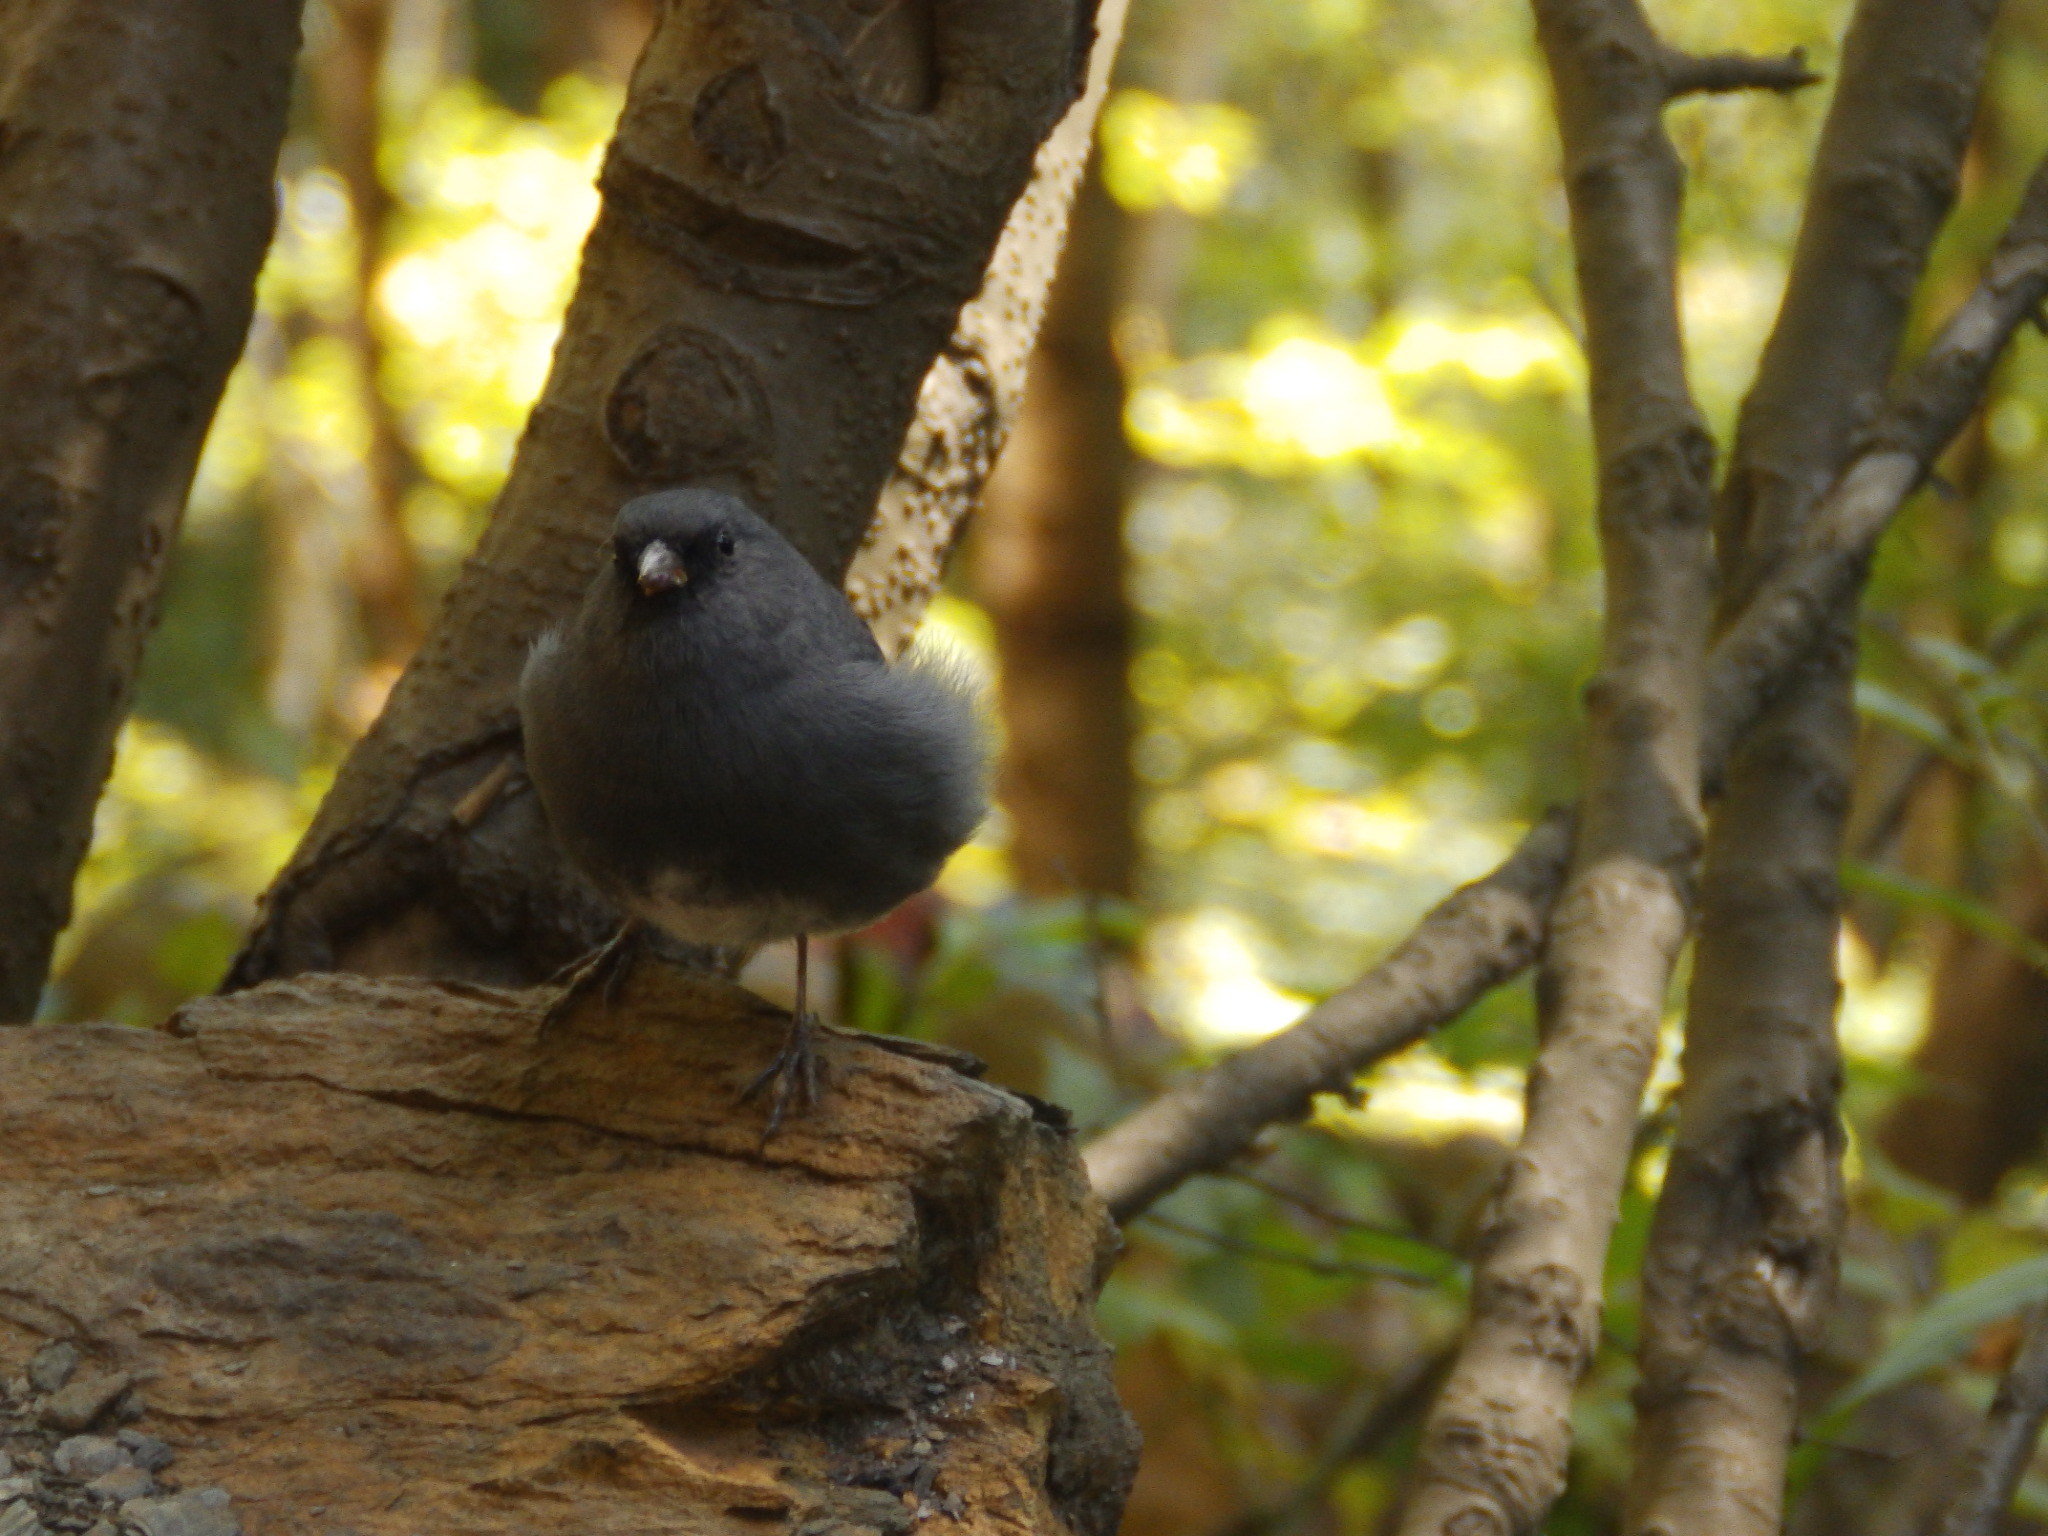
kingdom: Animalia
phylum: Chordata
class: Aves
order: Passeriformes
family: Passerellidae
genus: Junco
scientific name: Junco hyemalis
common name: Dark-eyed junco
